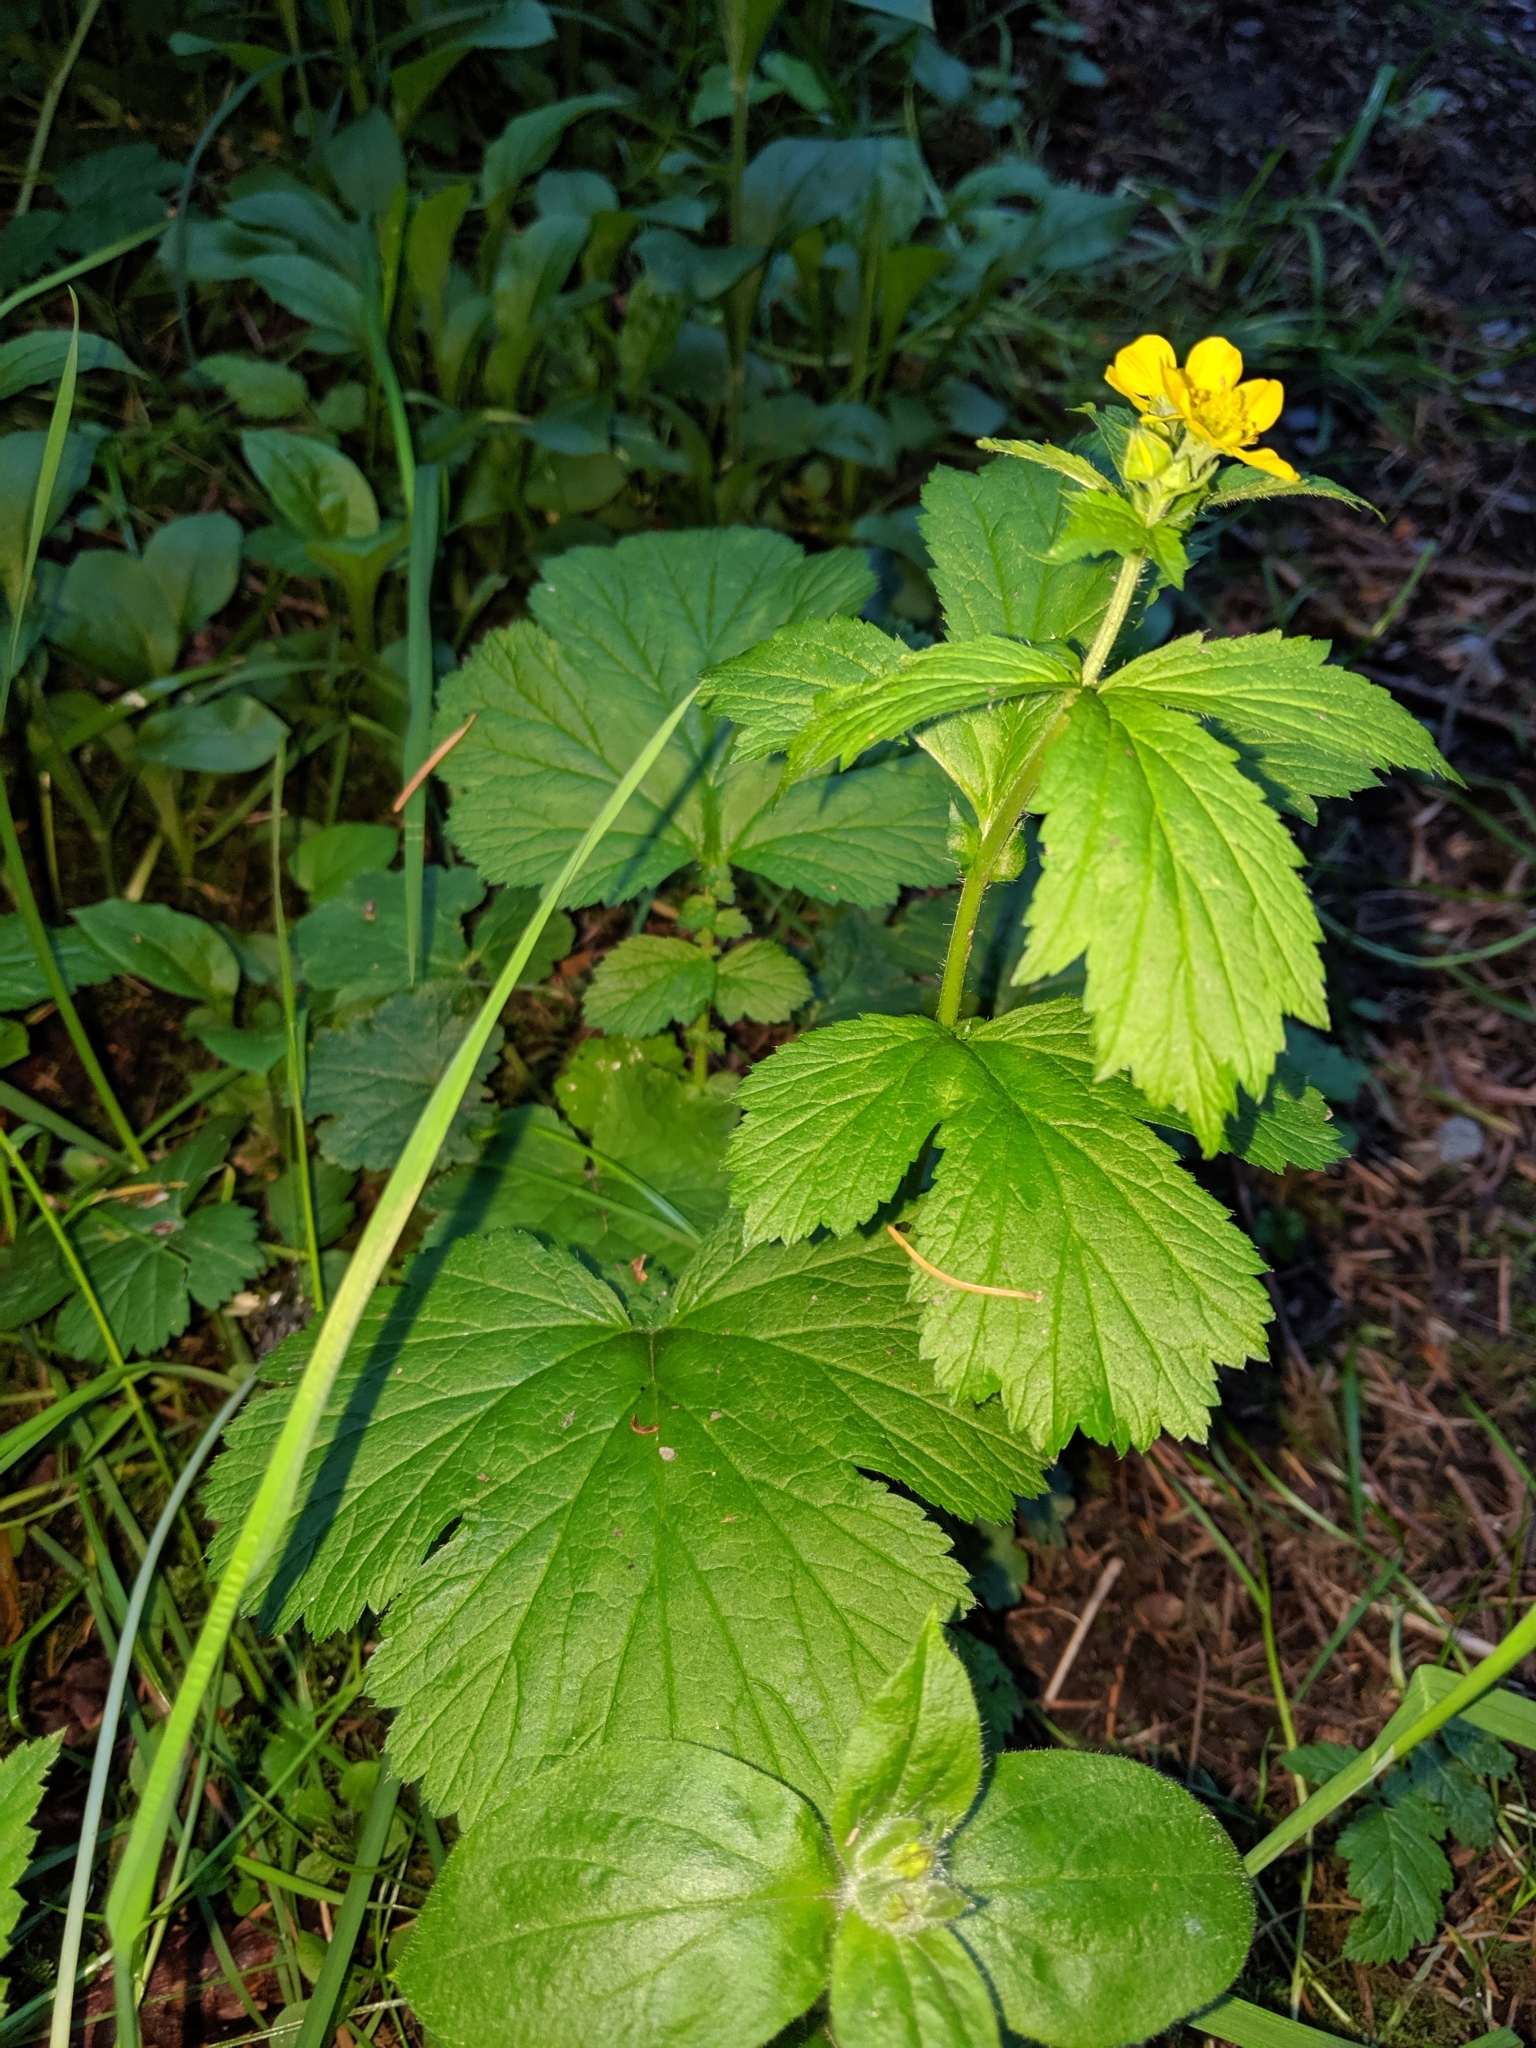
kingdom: Plantae
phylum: Tracheophyta
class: Magnoliopsida
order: Rosales
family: Rosaceae
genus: Geum
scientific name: Geum macrophyllum
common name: Large-leaved avens
